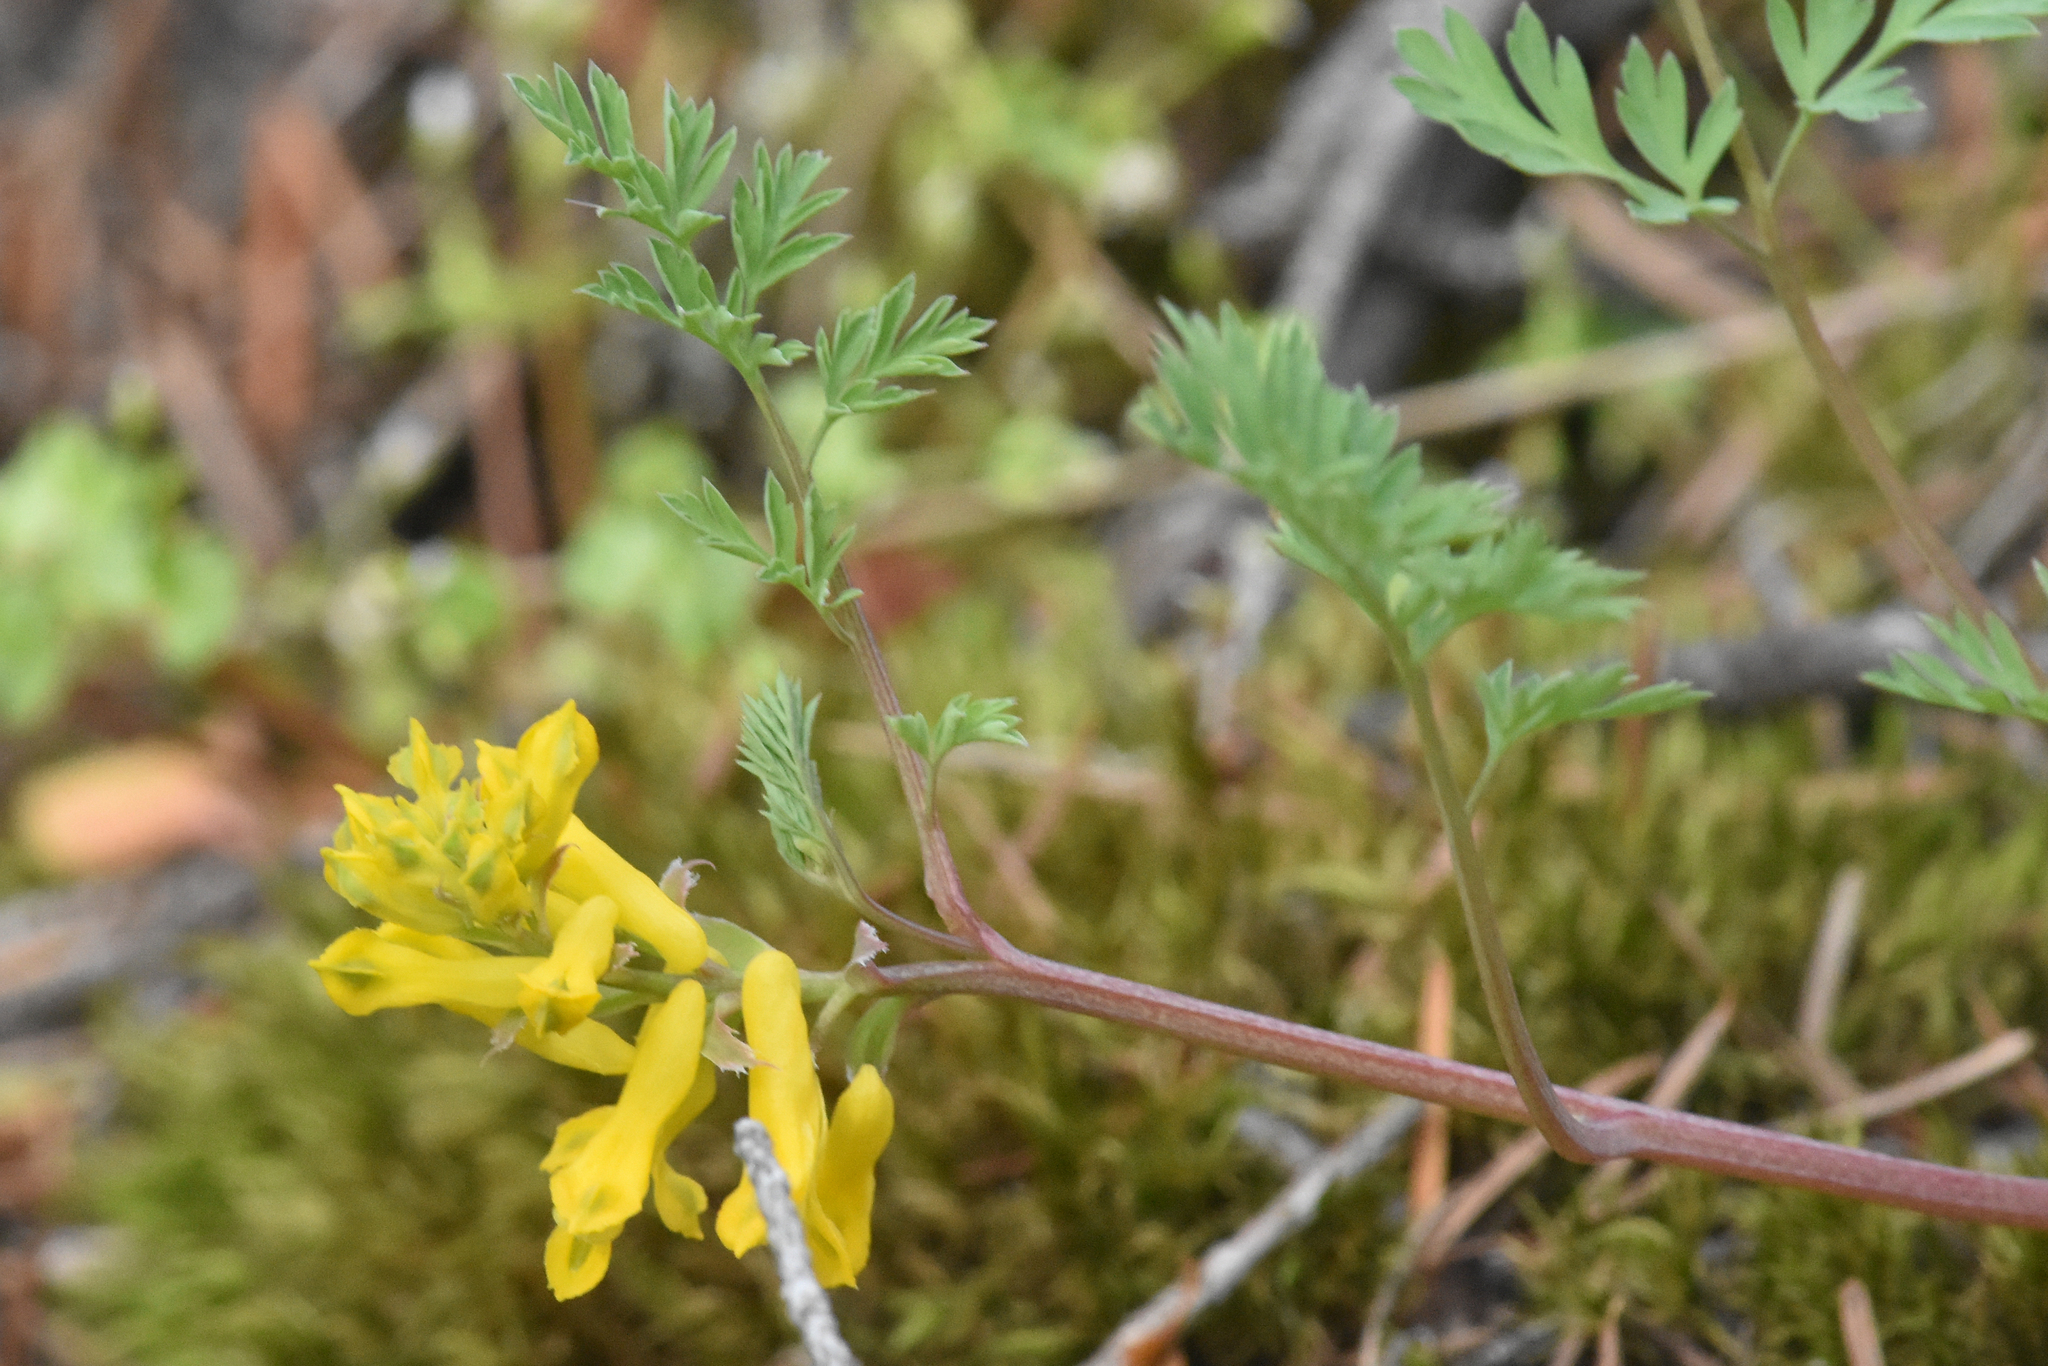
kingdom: Plantae
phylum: Tracheophyta
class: Magnoliopsida
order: Ranunculales
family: Papaveraceae
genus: Corydalis
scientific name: Corydalis aurea
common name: Golden corydalis
